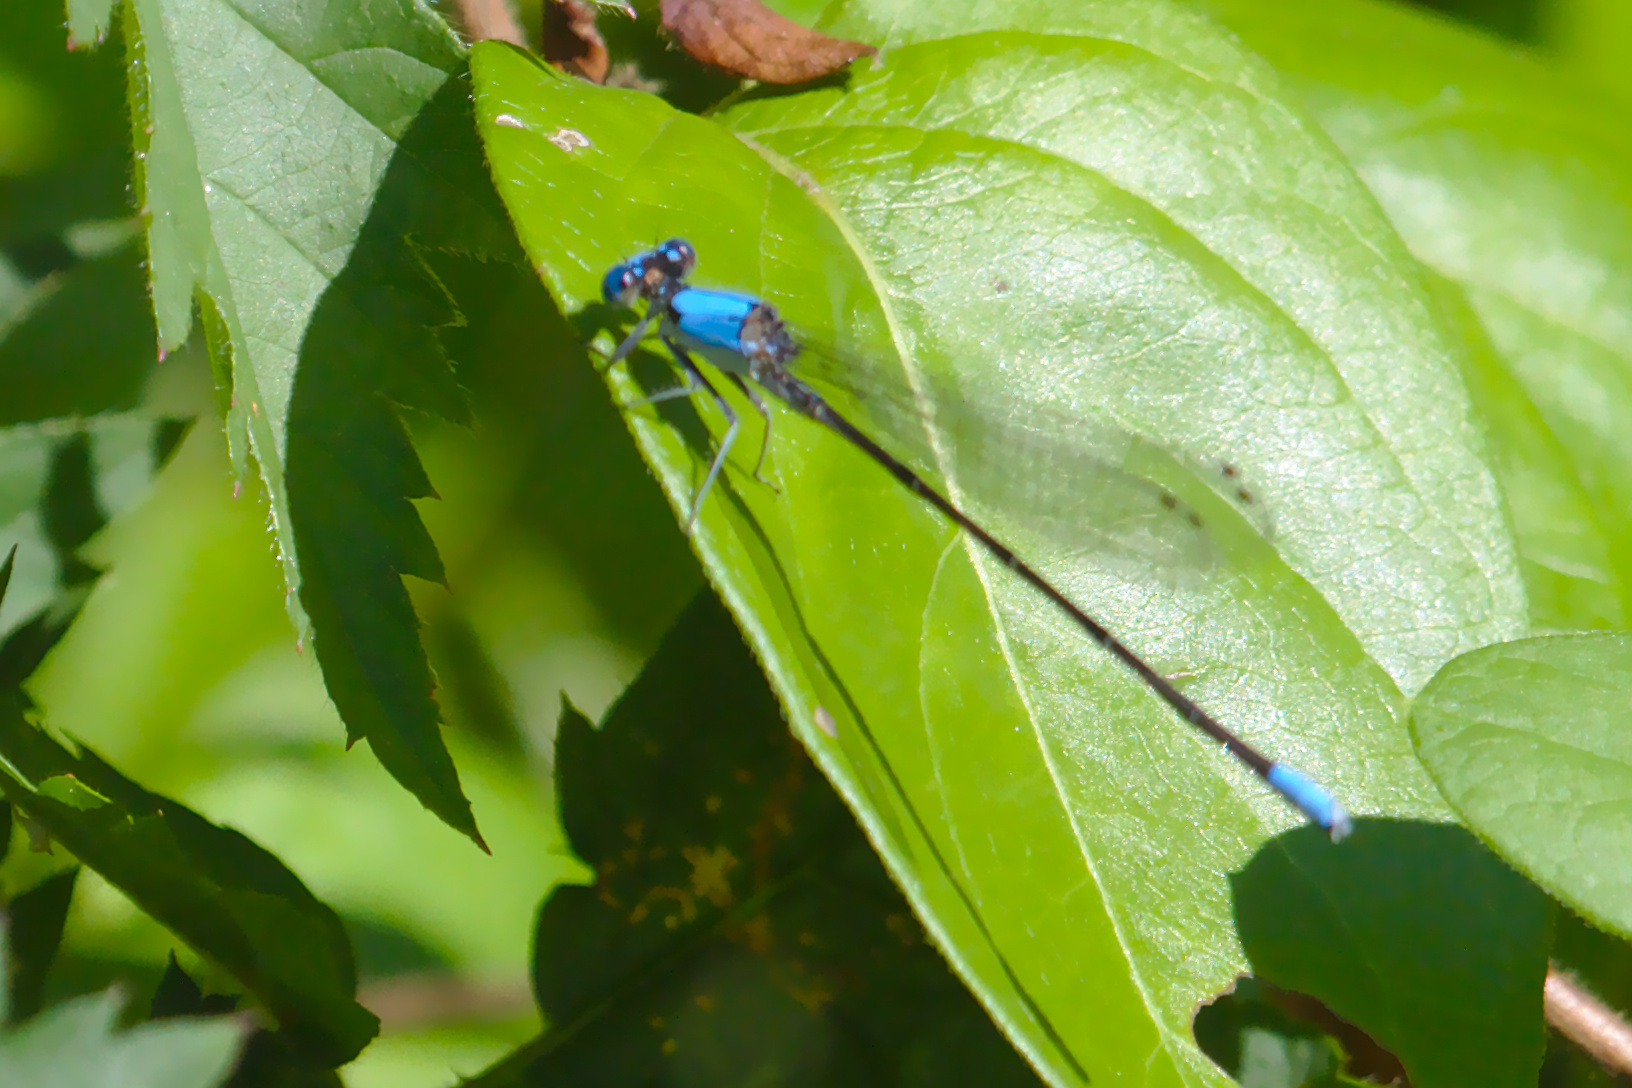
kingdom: Animalia
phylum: Arthropoda
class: Insecta
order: Odonata
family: Coenagrionidae
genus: Argia
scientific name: Argia apicalis
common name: Blue-fronted dancer
